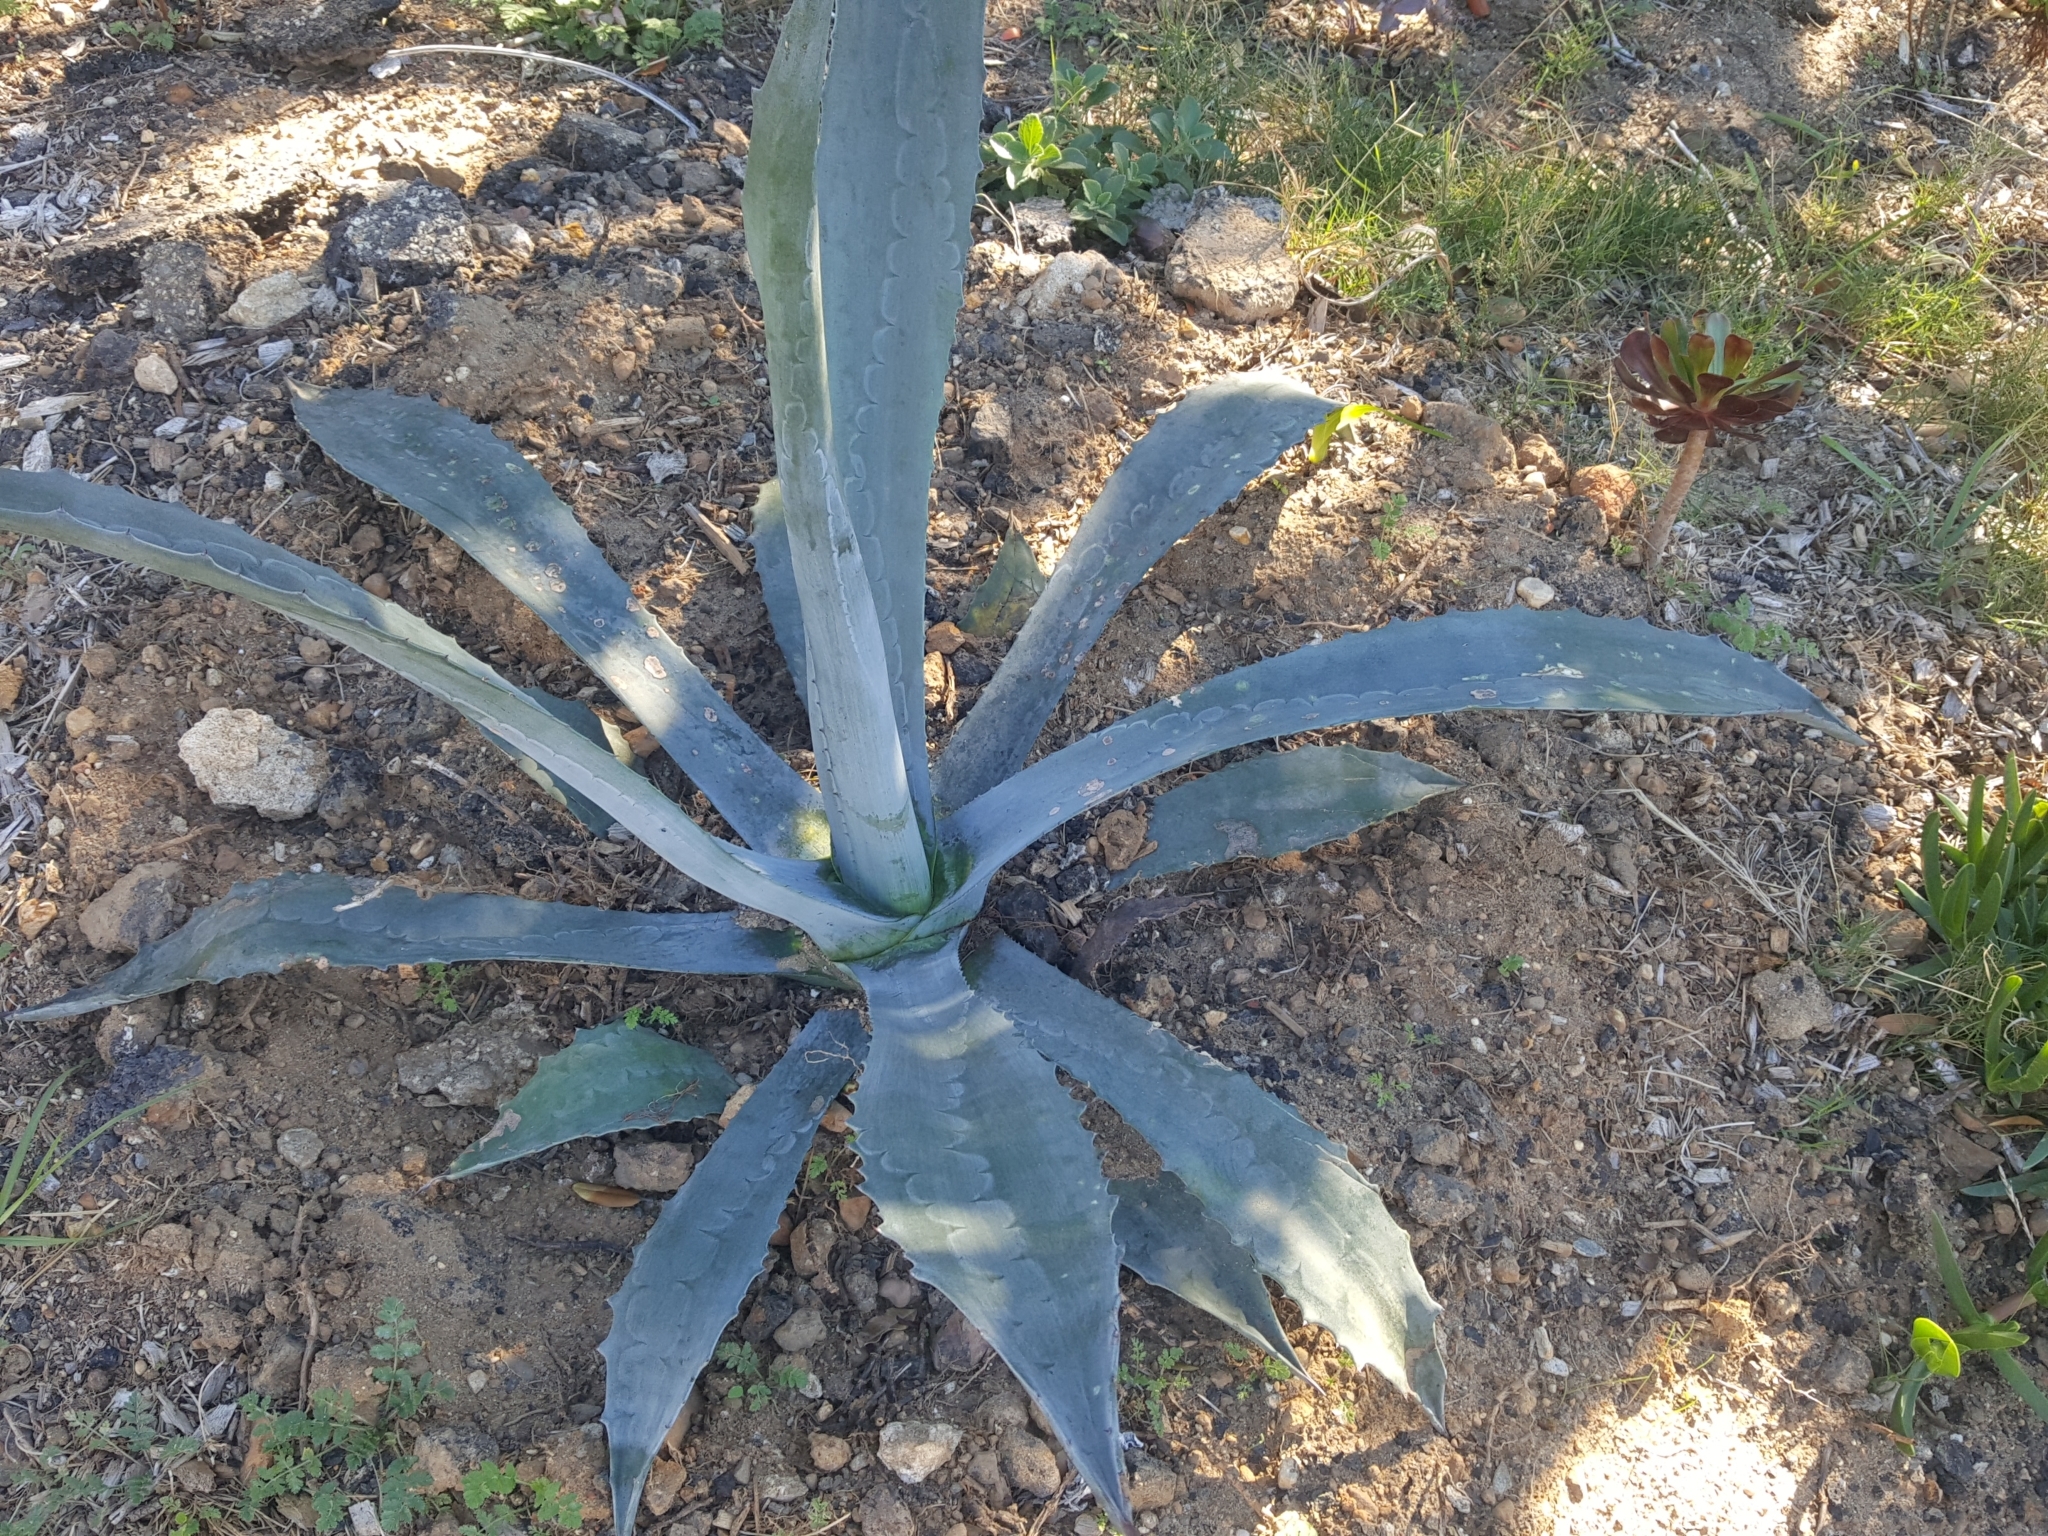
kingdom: Plantae
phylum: Tracheophyta
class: Liliopsida
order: Asparagales
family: Asparagaceae
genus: Agave
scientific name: Agave americana
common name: Centuryplant
